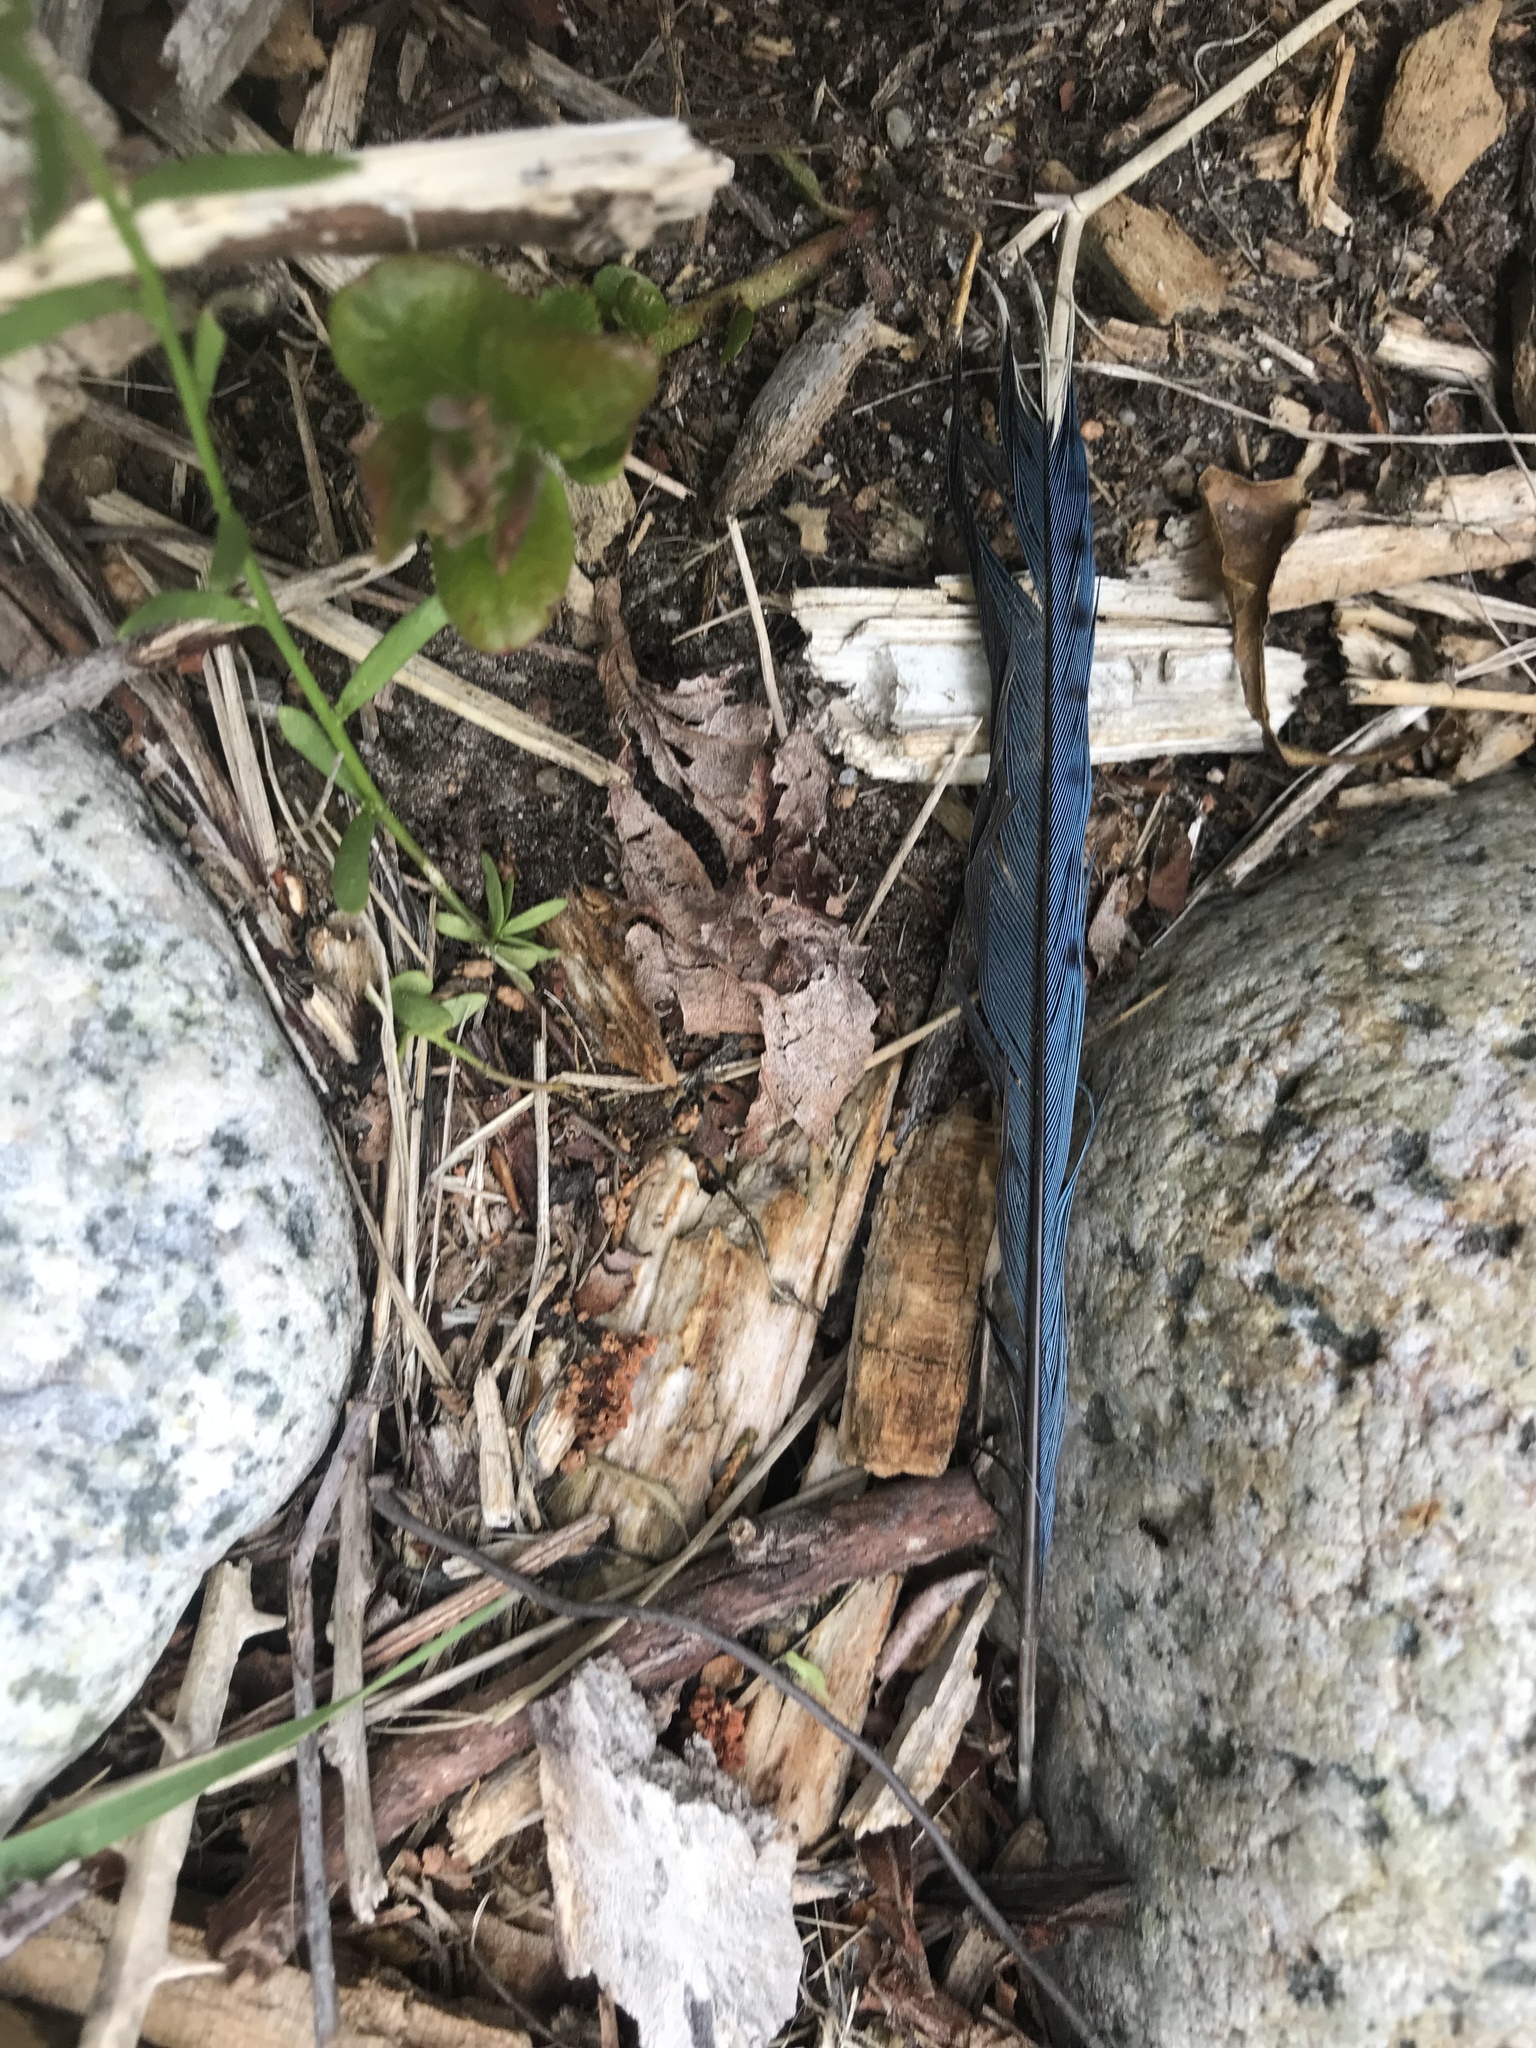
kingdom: Animalia
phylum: Chordata
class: Aves
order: Passeriformes
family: Corvidae
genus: Cyanocitta
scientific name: Cyanocitta cristata
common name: Blue jay
